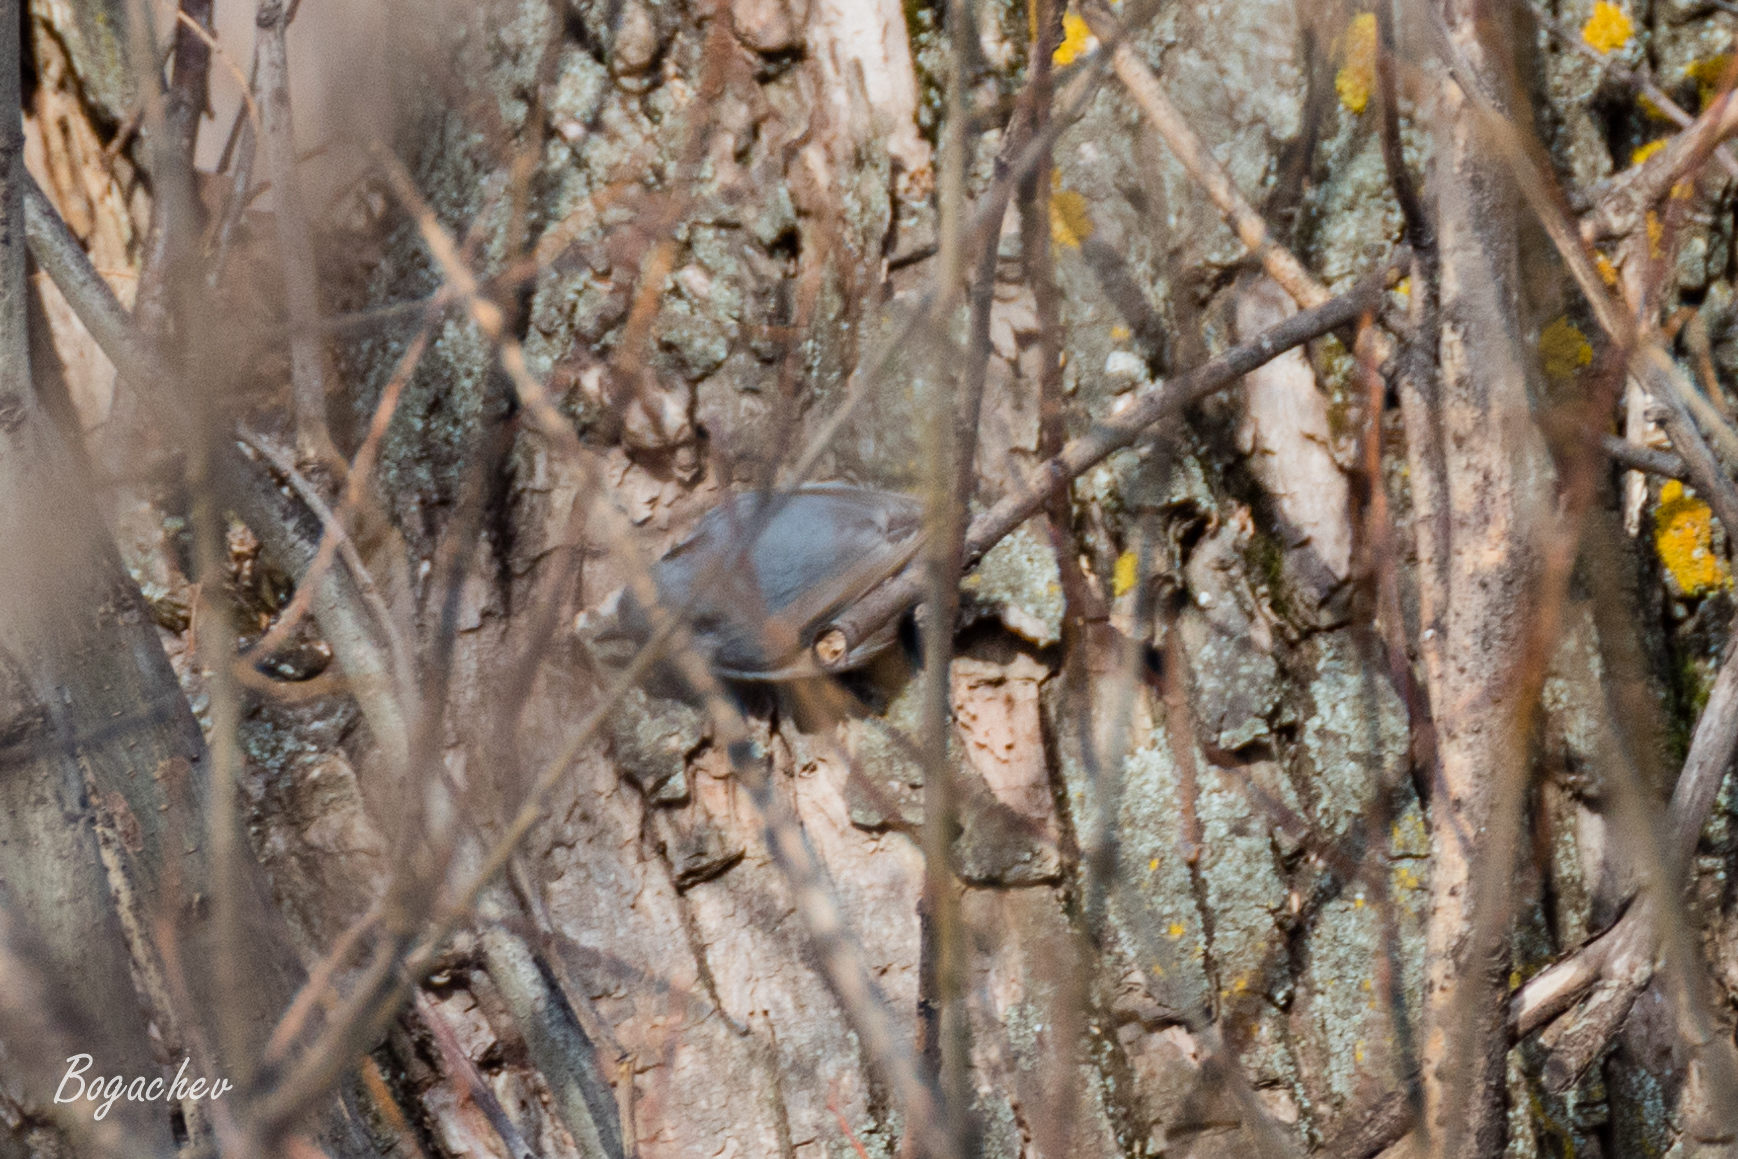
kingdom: Animalia
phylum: Chordata
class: Aves
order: Passeriformes
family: Sittidae
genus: Sitta
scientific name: Sitta europaea
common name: Eurasian nuthatch
